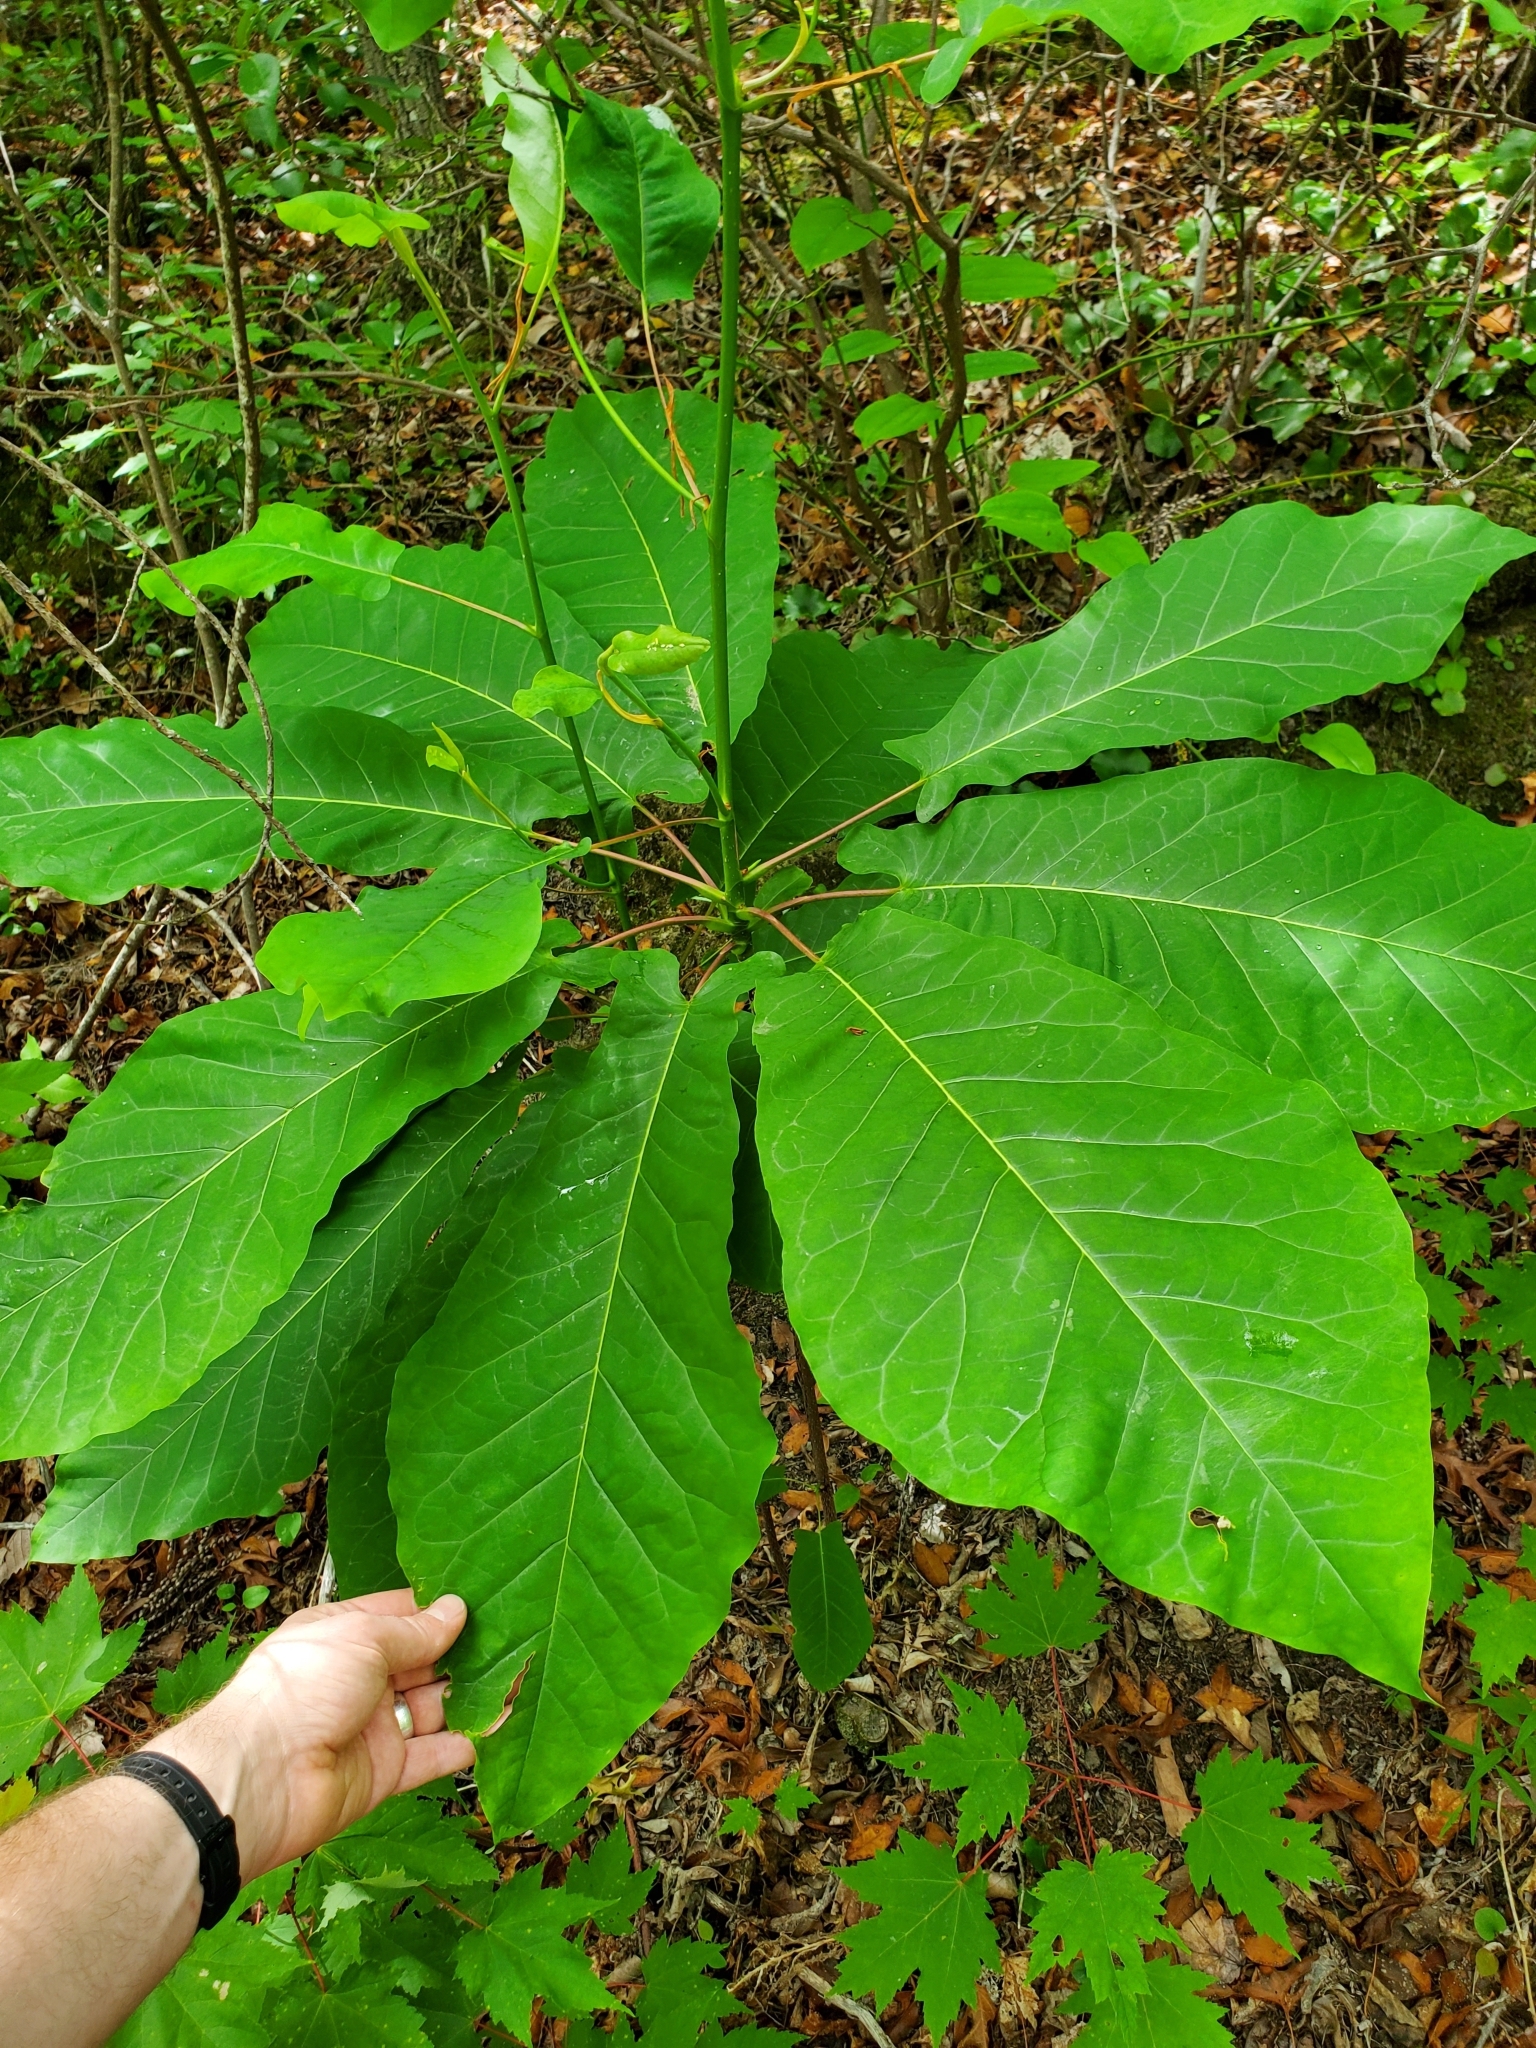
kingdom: Plantae
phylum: Tracheophyta
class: Magnoliopsida
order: Magnoliales
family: Magnoliaceae
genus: Magnolia
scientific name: Magnolia fraseri
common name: Fraser's magnolia
